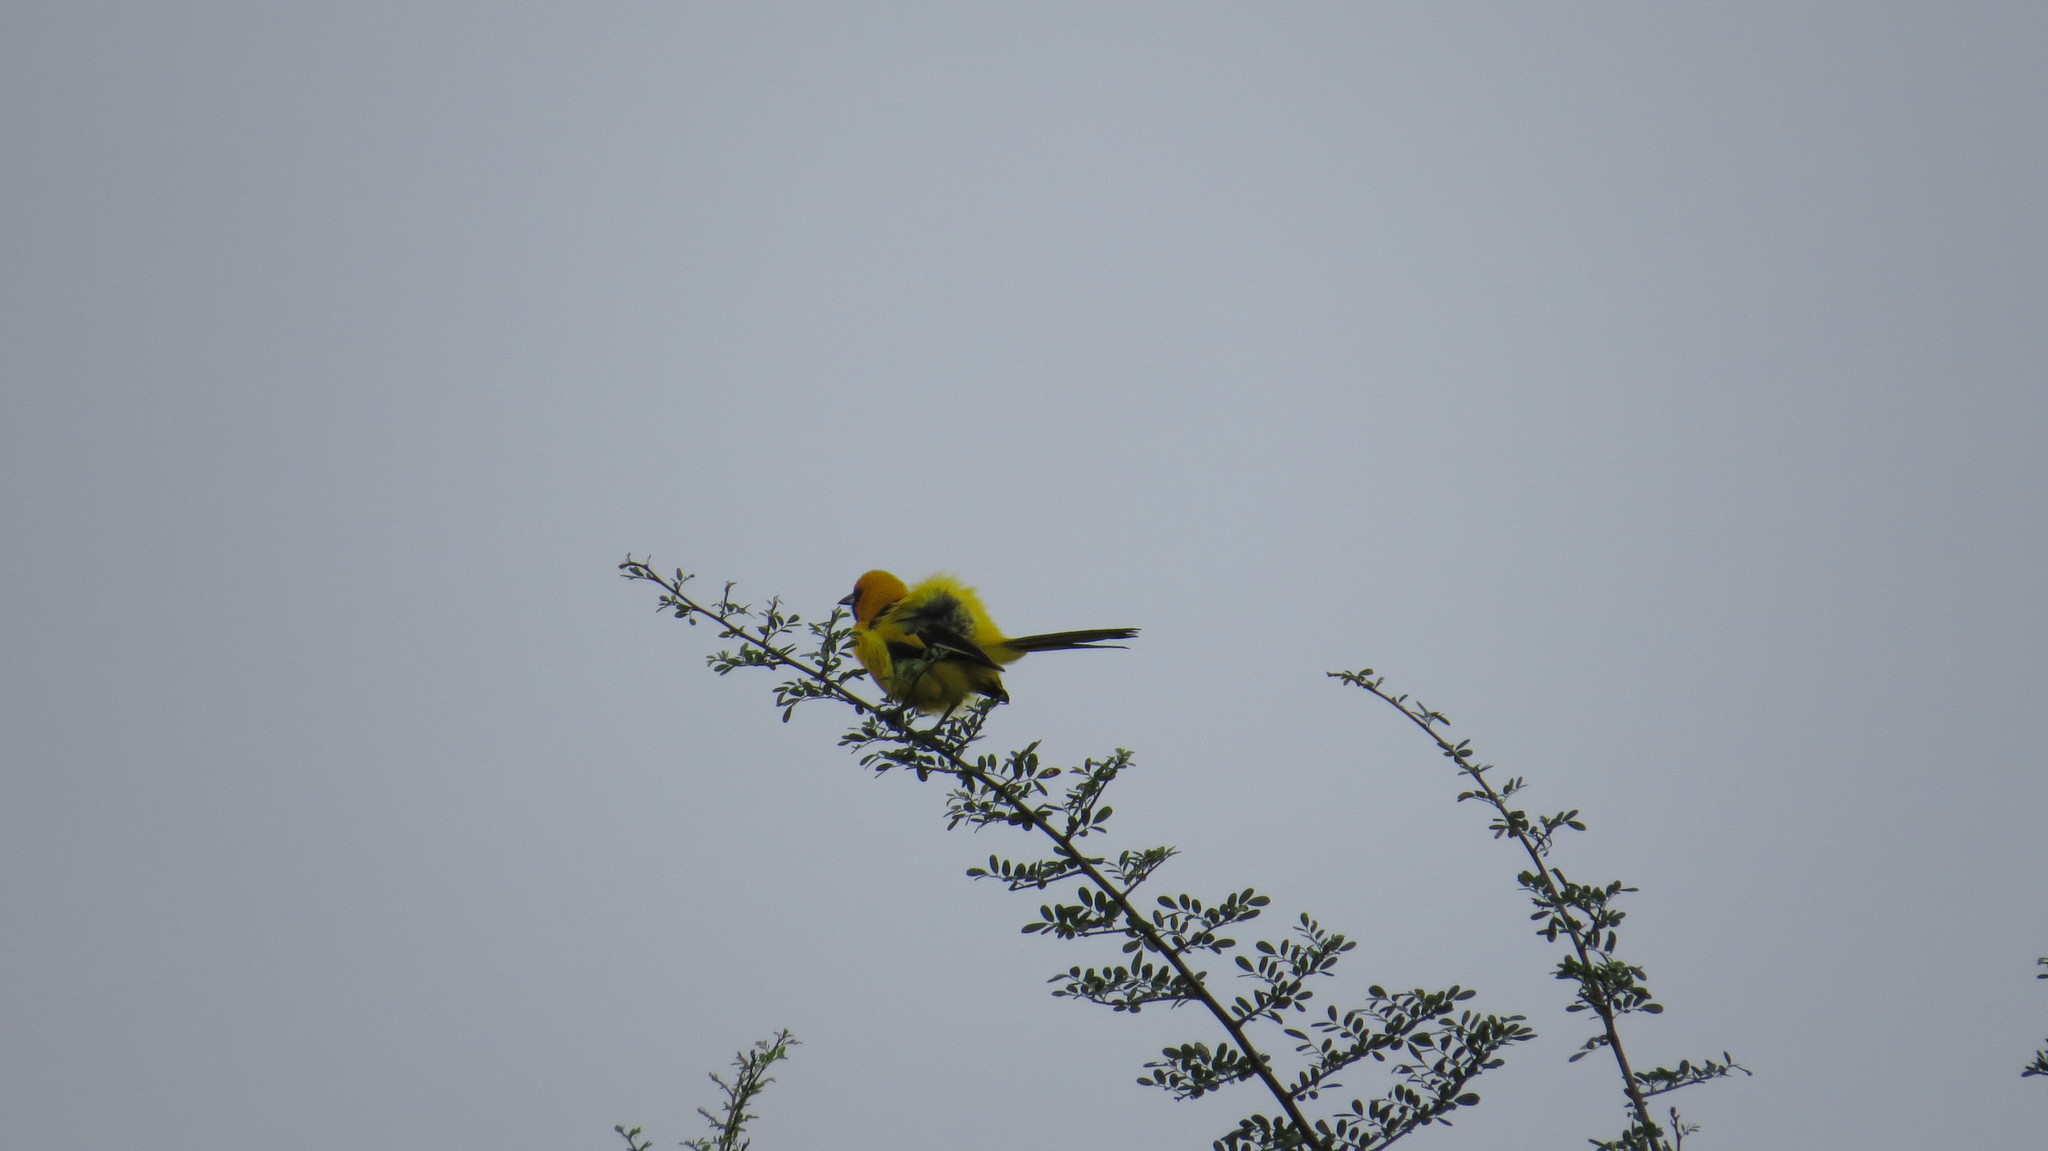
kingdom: Animalia
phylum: Chordata
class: Aves
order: Passeriformes
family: Icteridae
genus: Icterus
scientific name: Icterus chrysater
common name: Yellow-backed oriole
